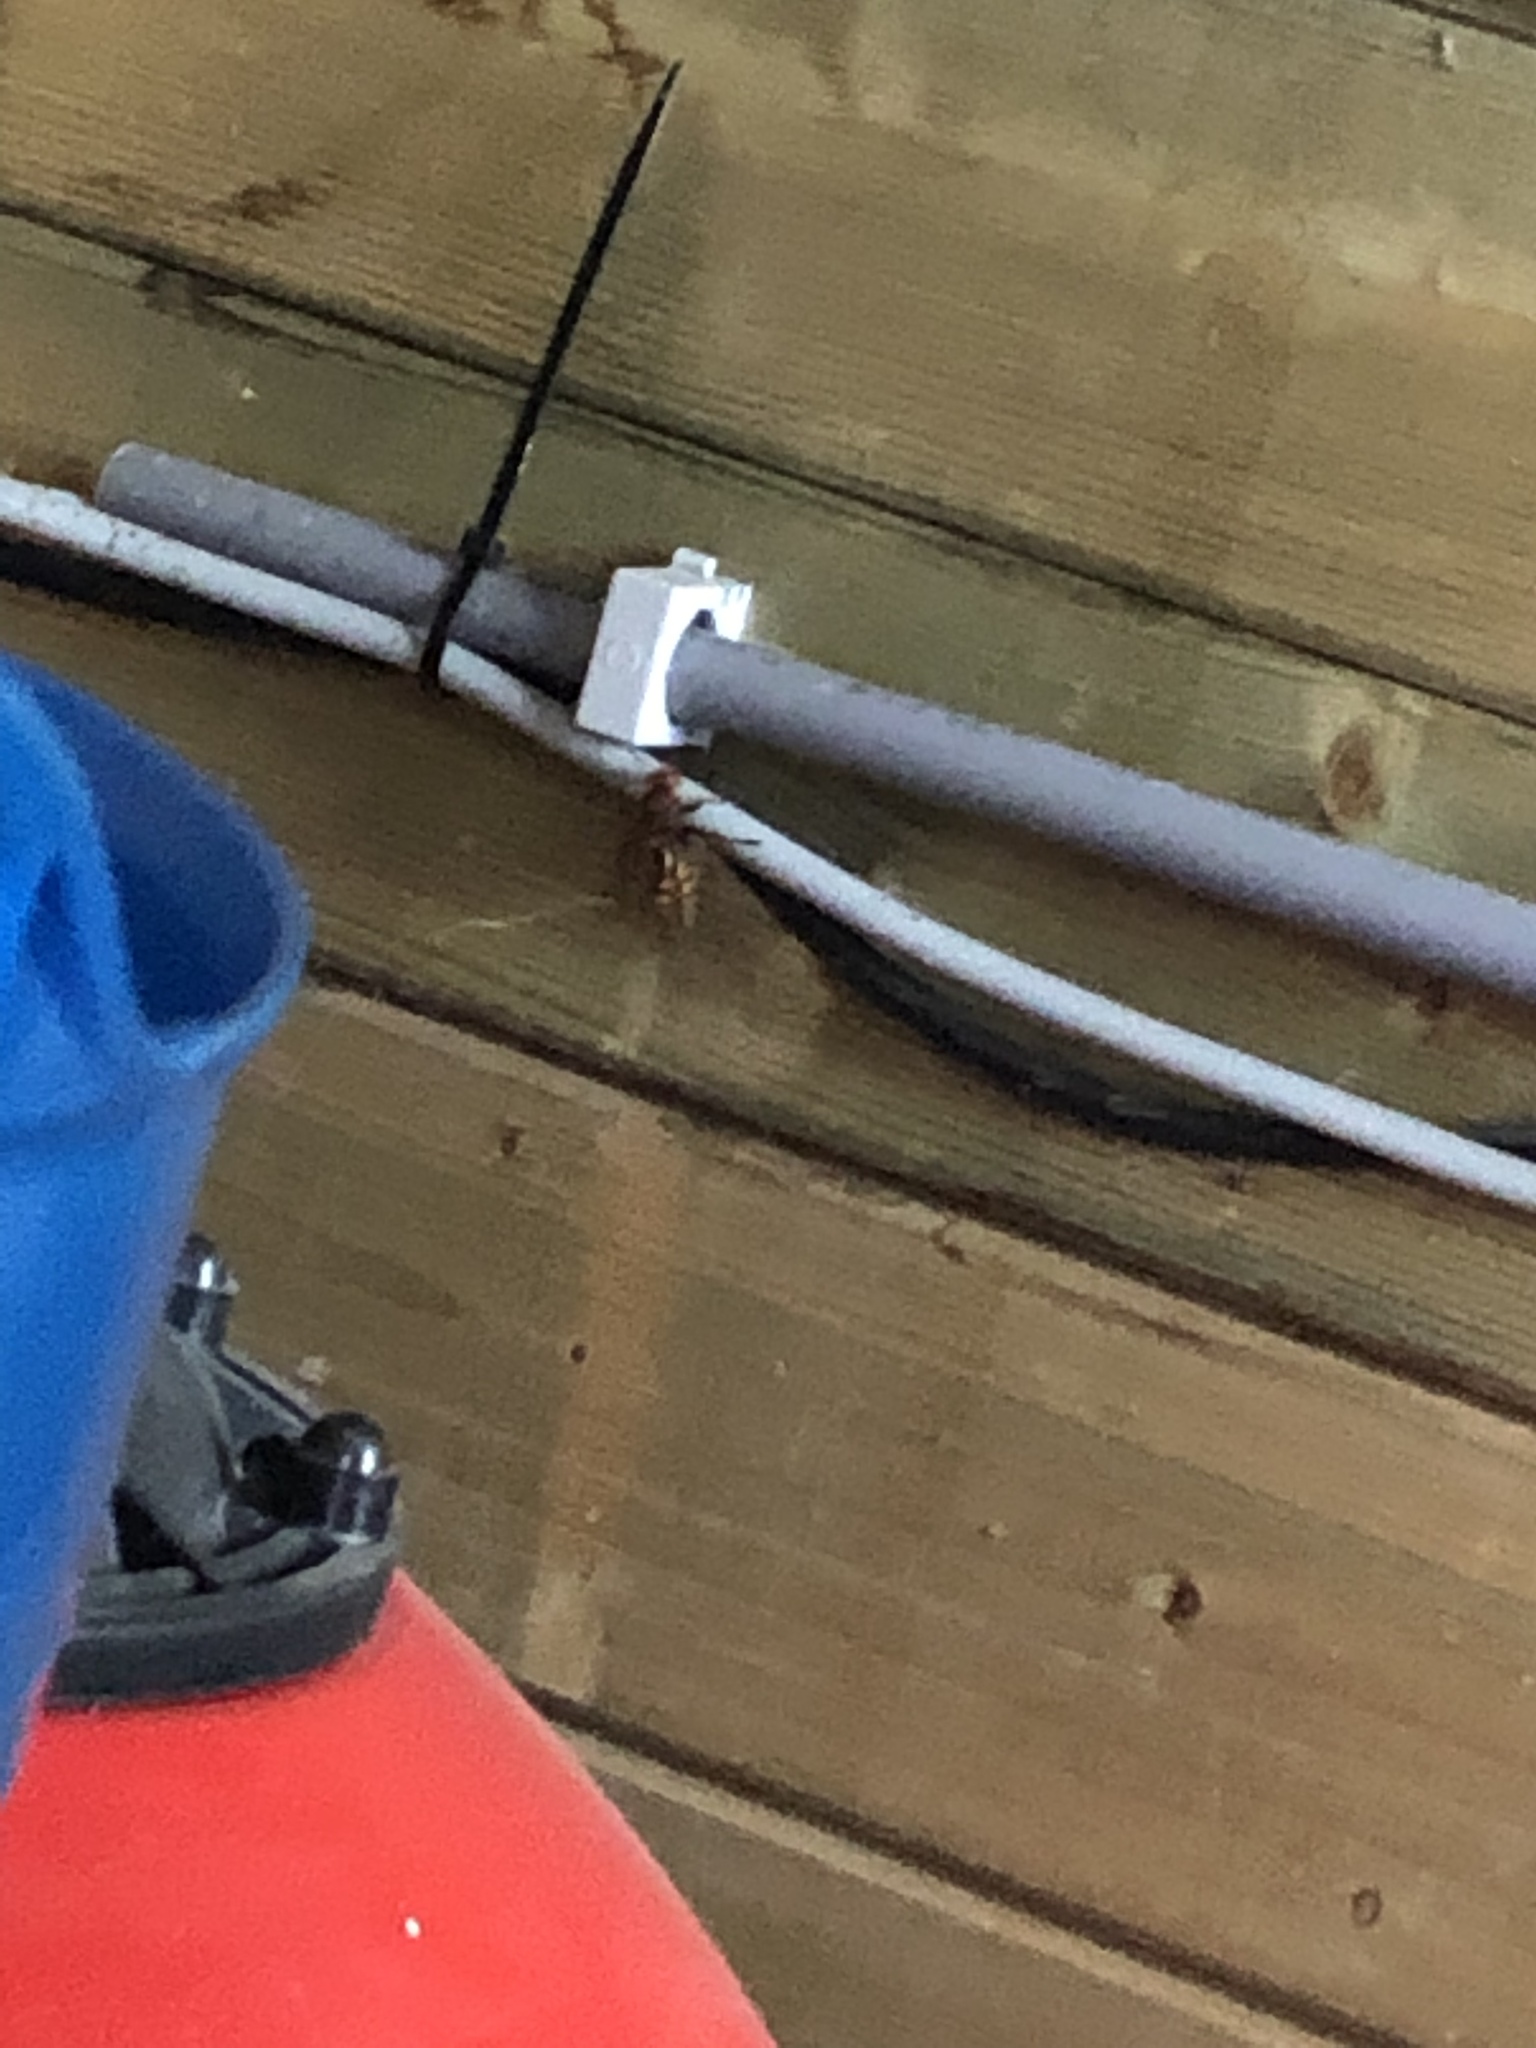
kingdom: Animalia
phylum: Arthropoda
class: Insecta
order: Hymenoptera
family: Vespidae
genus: Vespa
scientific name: Vespa crabro
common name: Hornet
